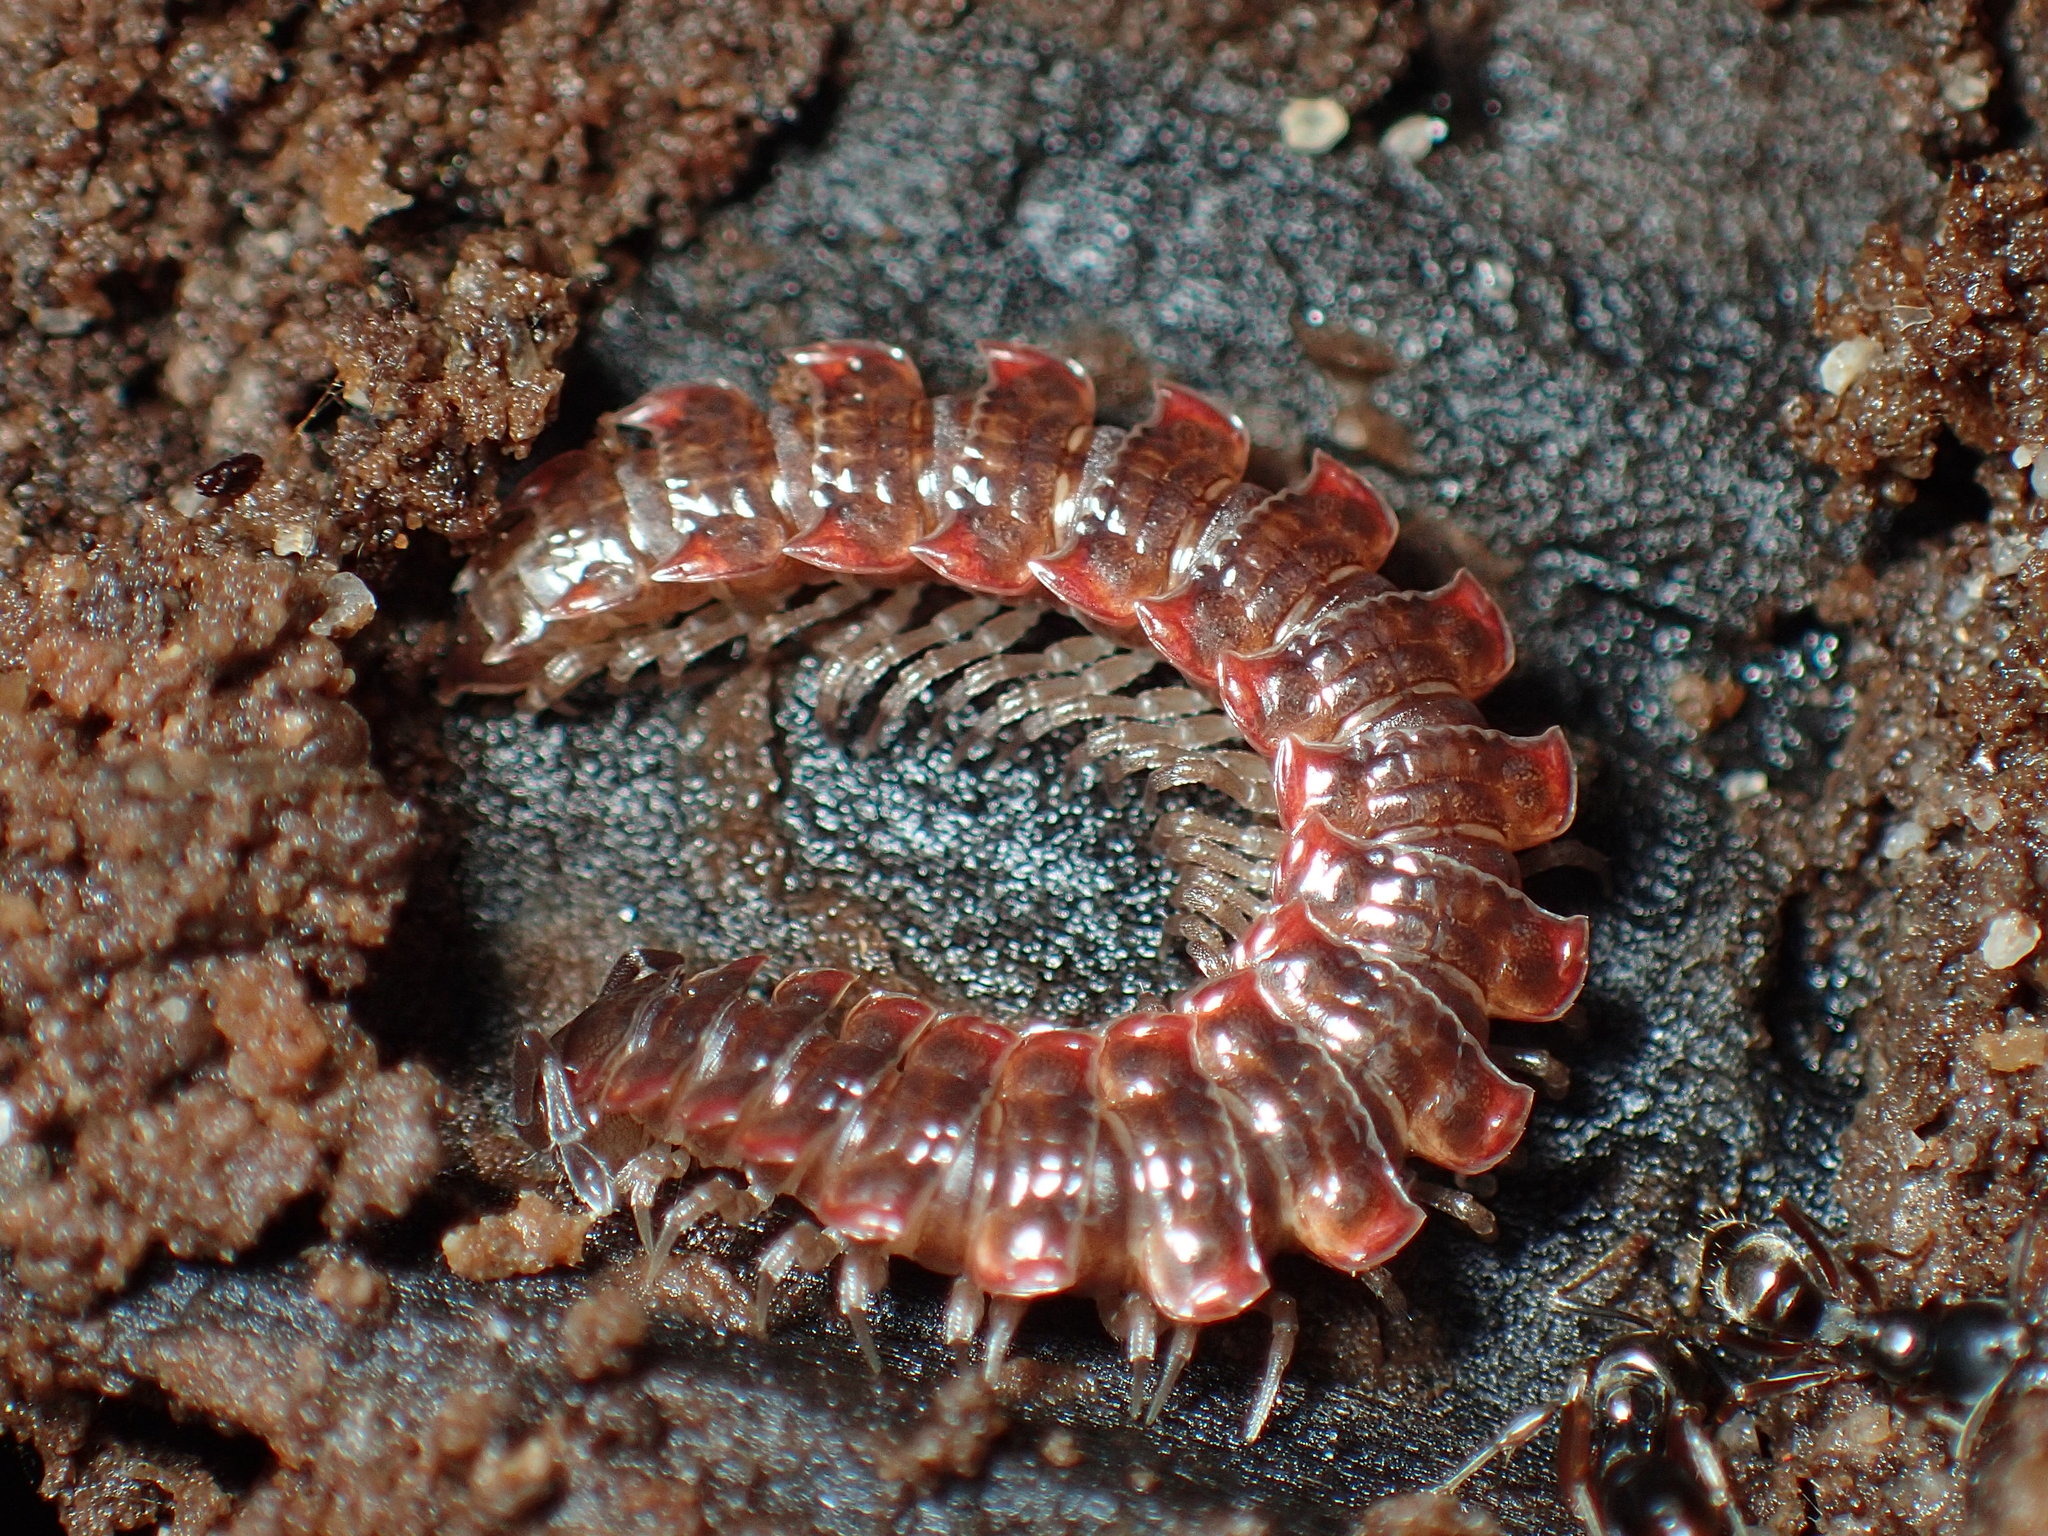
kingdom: Animalia
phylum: Arthropoda
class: Diplopoda
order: Polydesmida
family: Polydesmidae
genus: Pseudopolydesmus
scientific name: Pseudopolydesmus erasus
